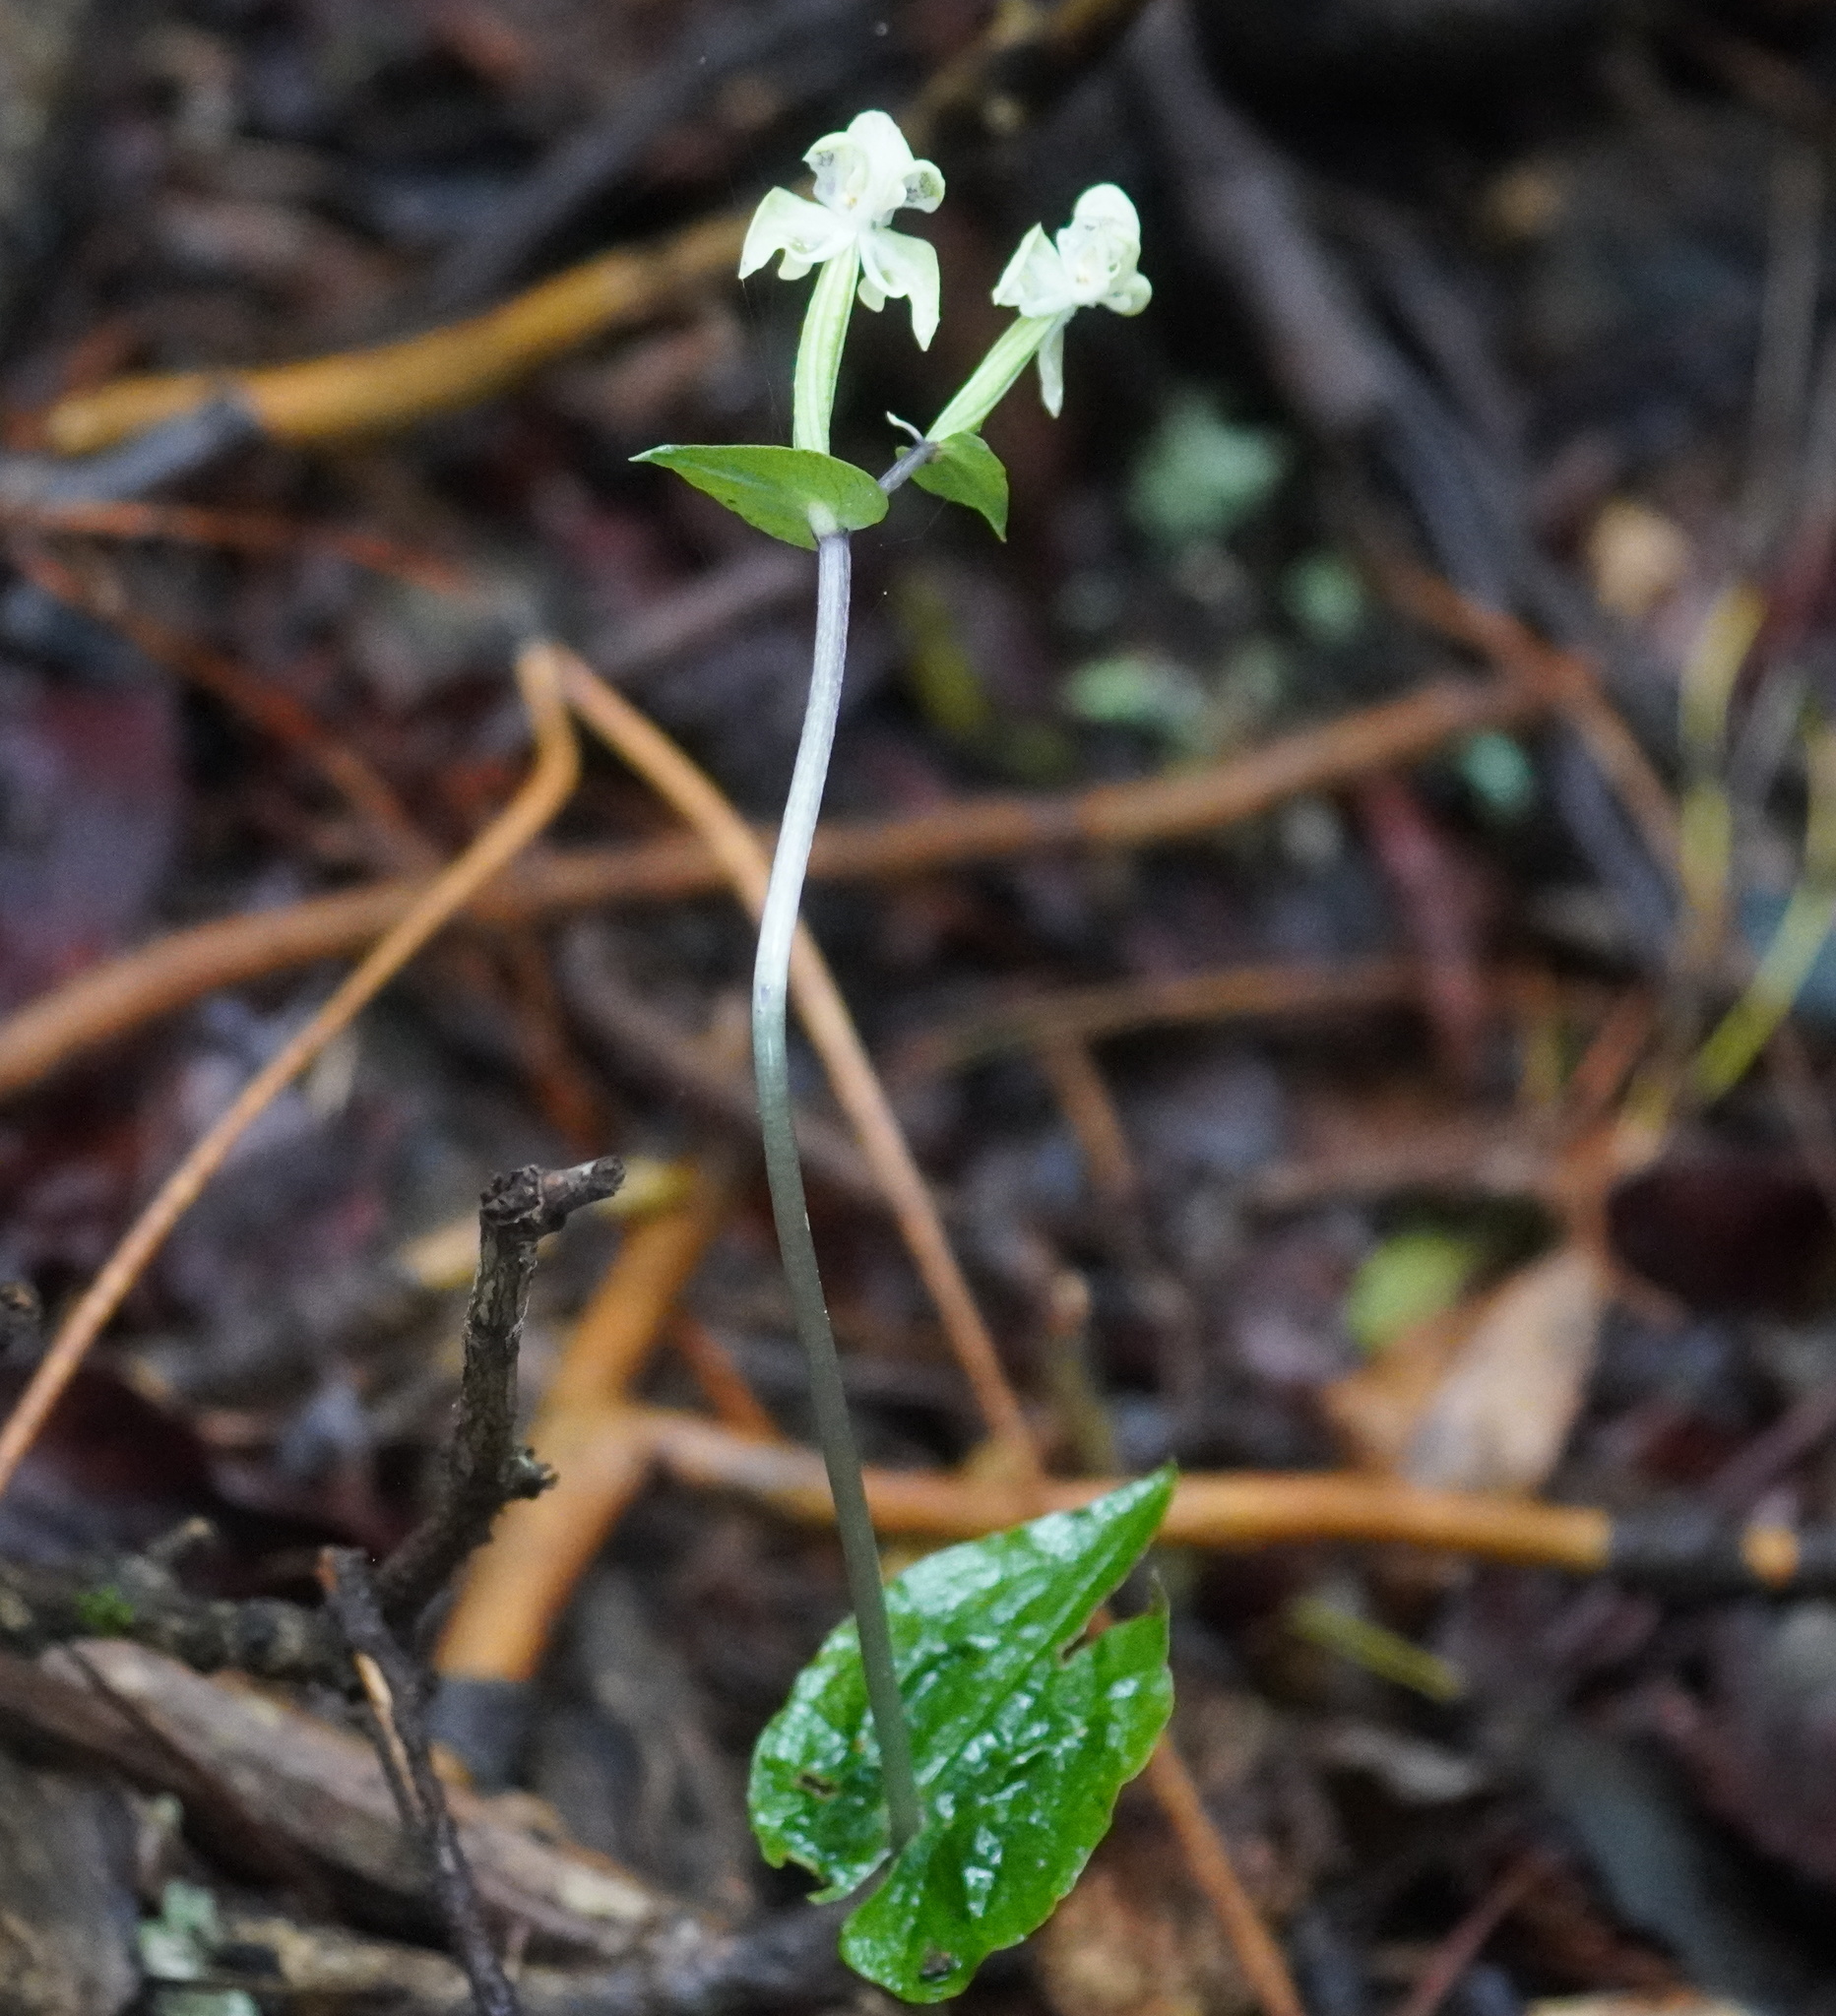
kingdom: Plantae
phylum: Tracheophyta
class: Liliopsida
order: Asparagales
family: Orchidaceae
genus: Disperis
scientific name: Disperis lindleyana
